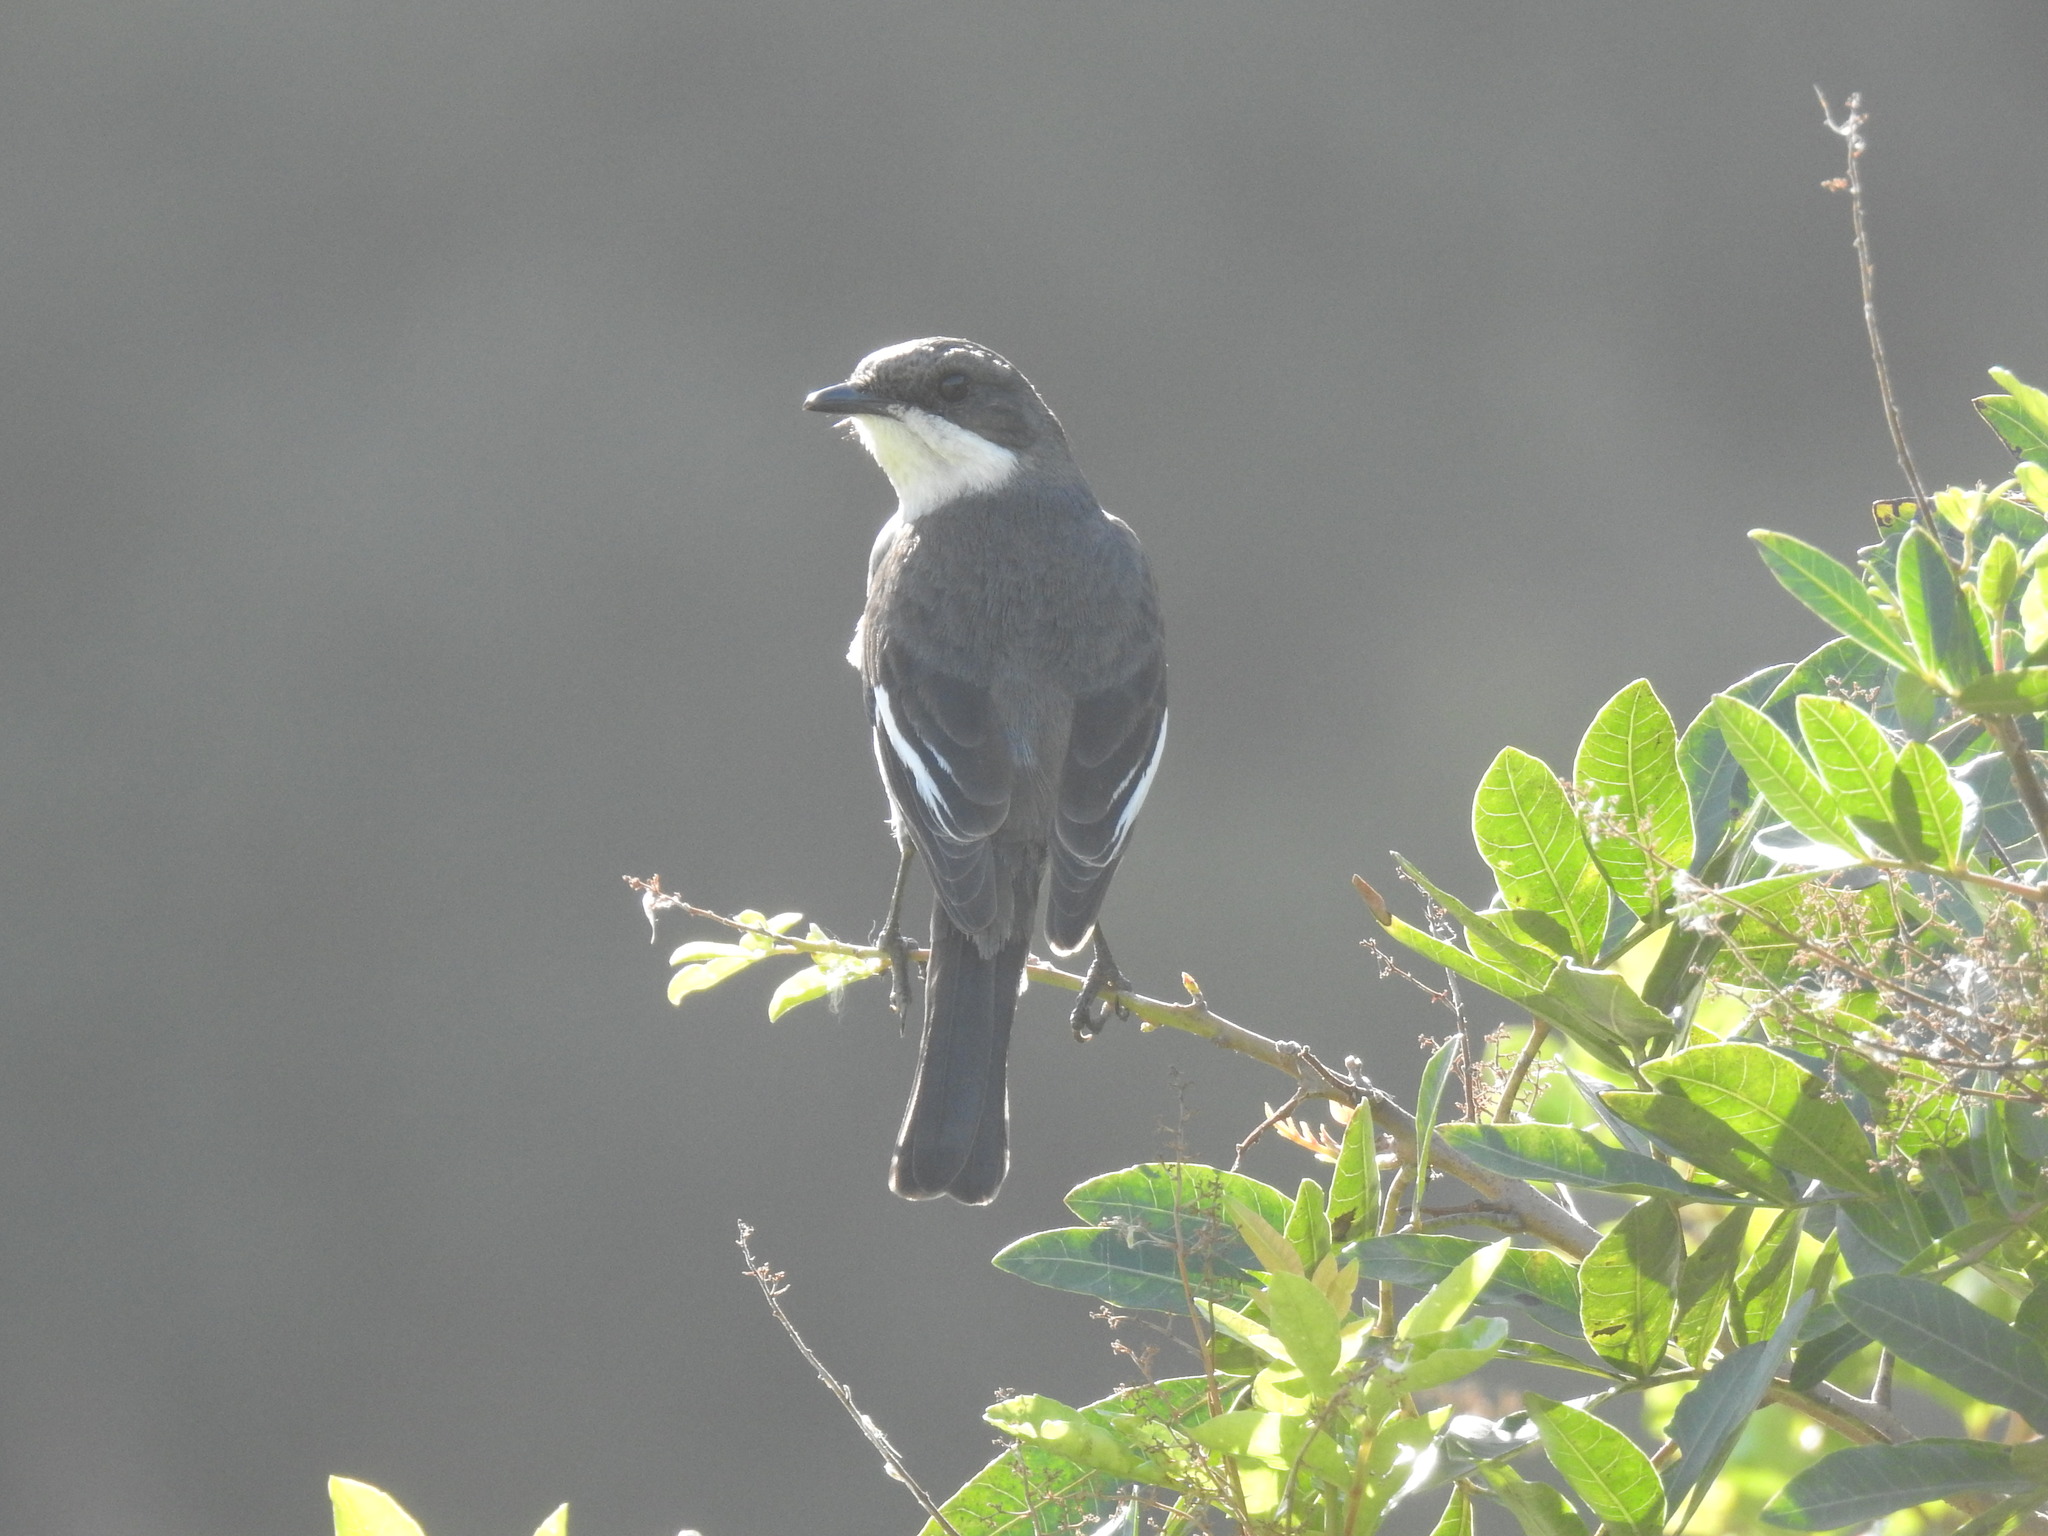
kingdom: Animalia
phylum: Chordata
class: Aves
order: Passeriformes
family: Muscicapidae
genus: Sigelus
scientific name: Sigelus silens
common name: Fiscal flycatcher
